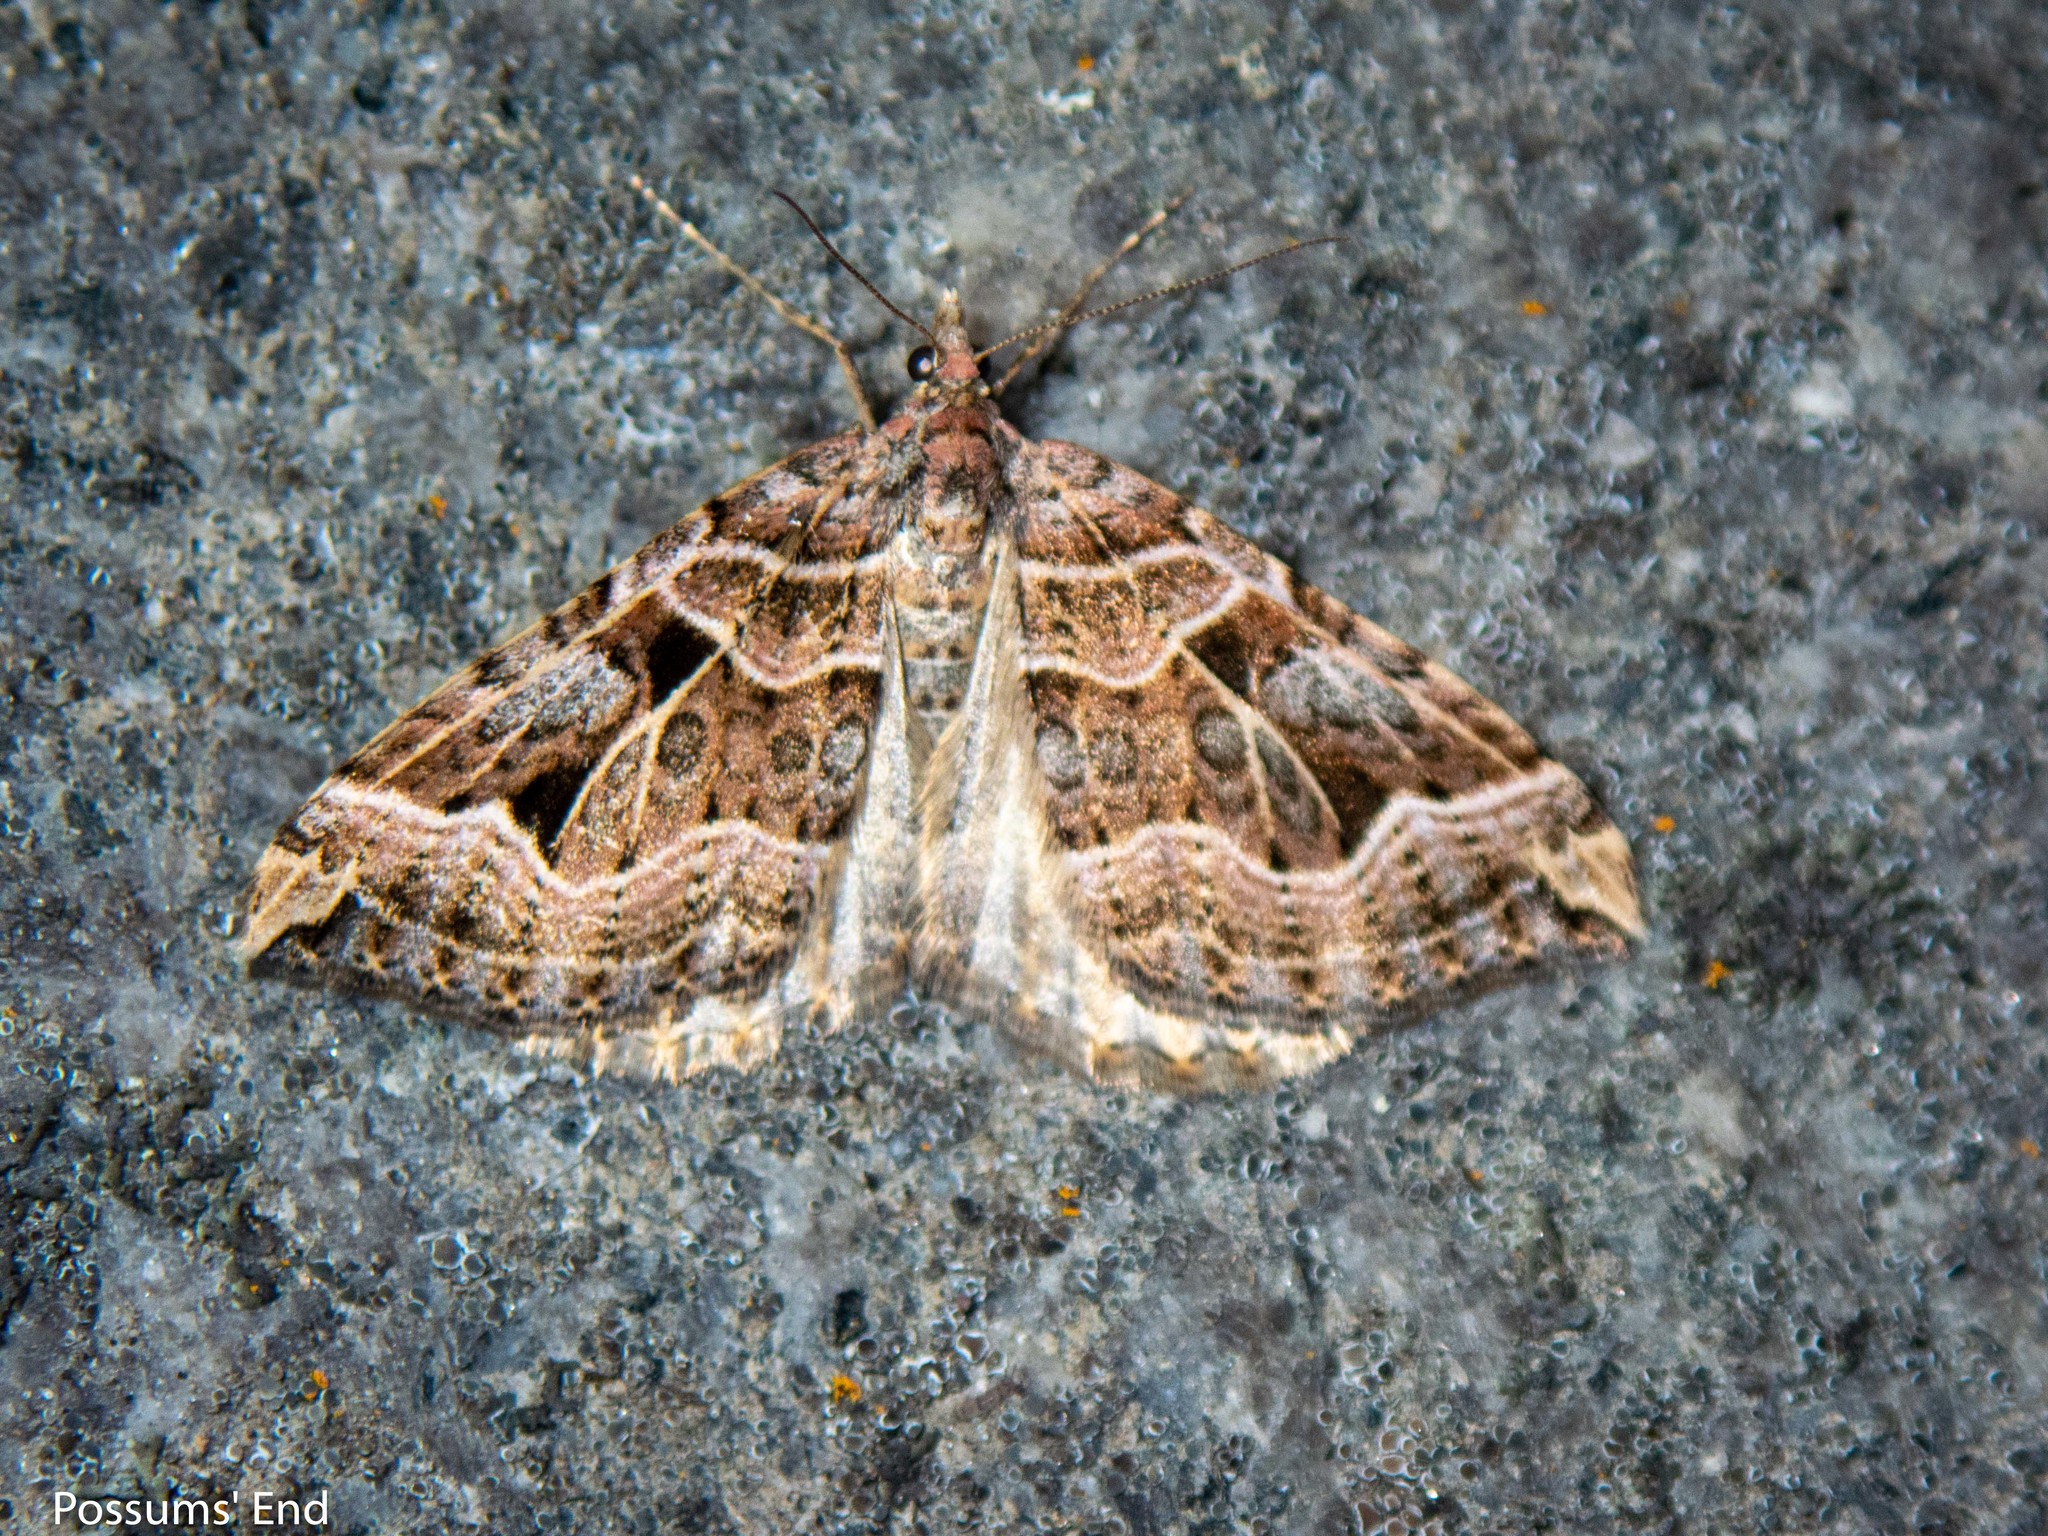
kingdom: Animalia
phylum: Arthropoda
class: Insecta
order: Lepidoptera
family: Geometridae
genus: Xanthorhoe
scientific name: Xanthorhoe semifissata
